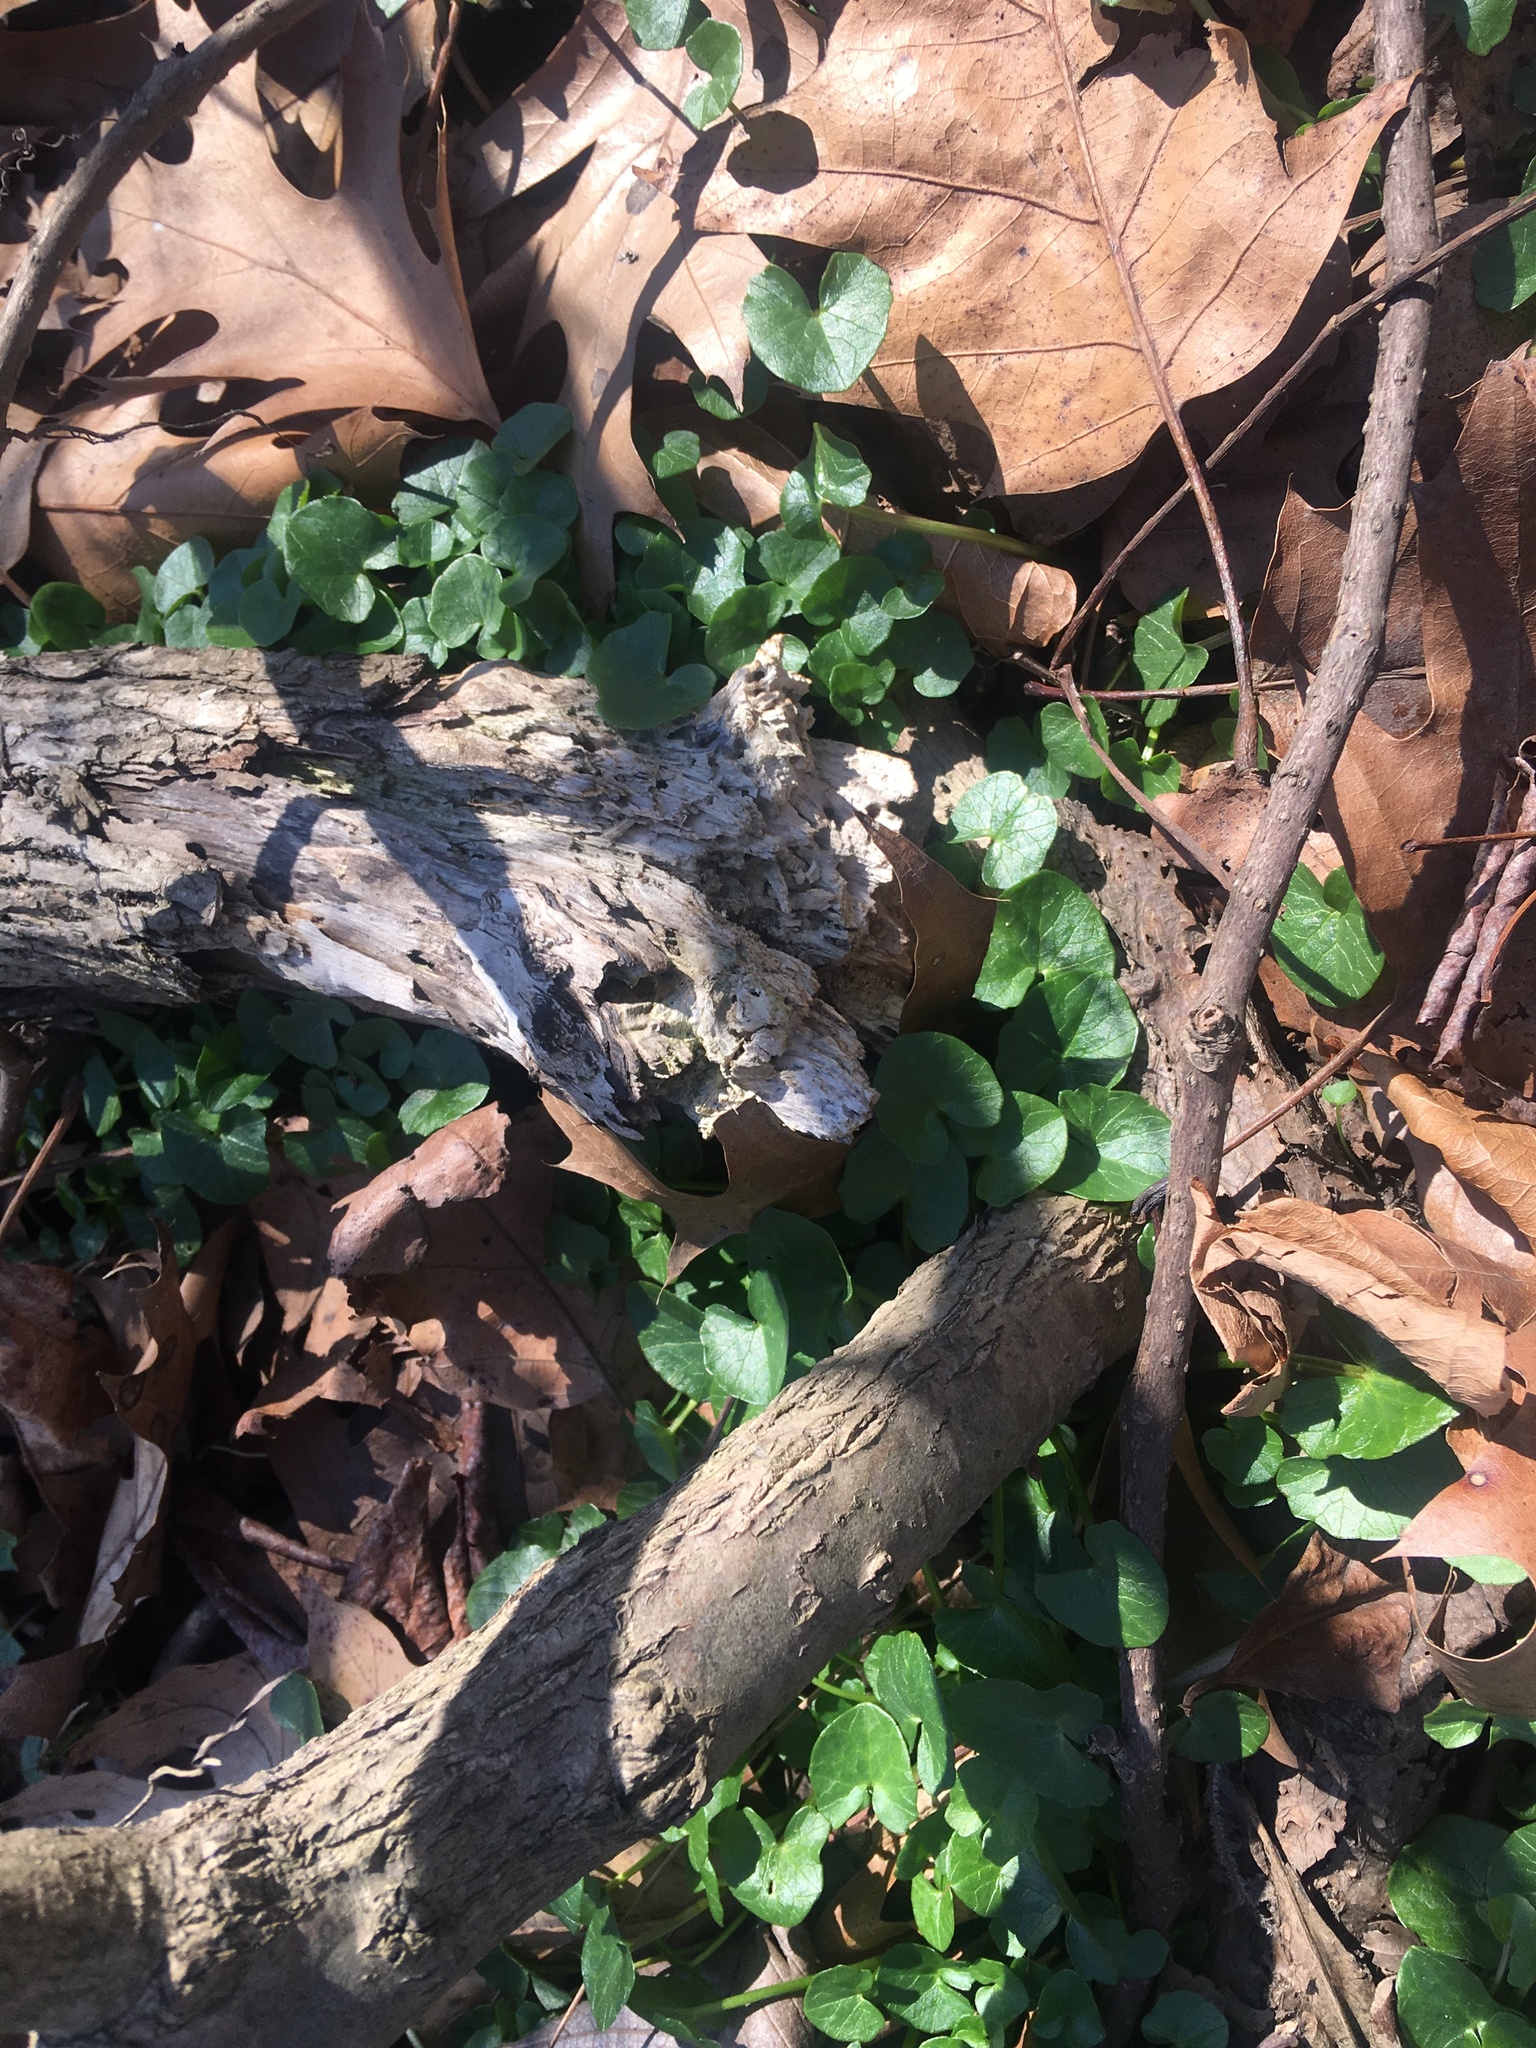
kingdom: Plantae
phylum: Tracheophyta
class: Magnoliopsida
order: Ranunculales
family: Ranunculaceae
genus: Ficaria
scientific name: Ficaria verna
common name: Lesser celandine
